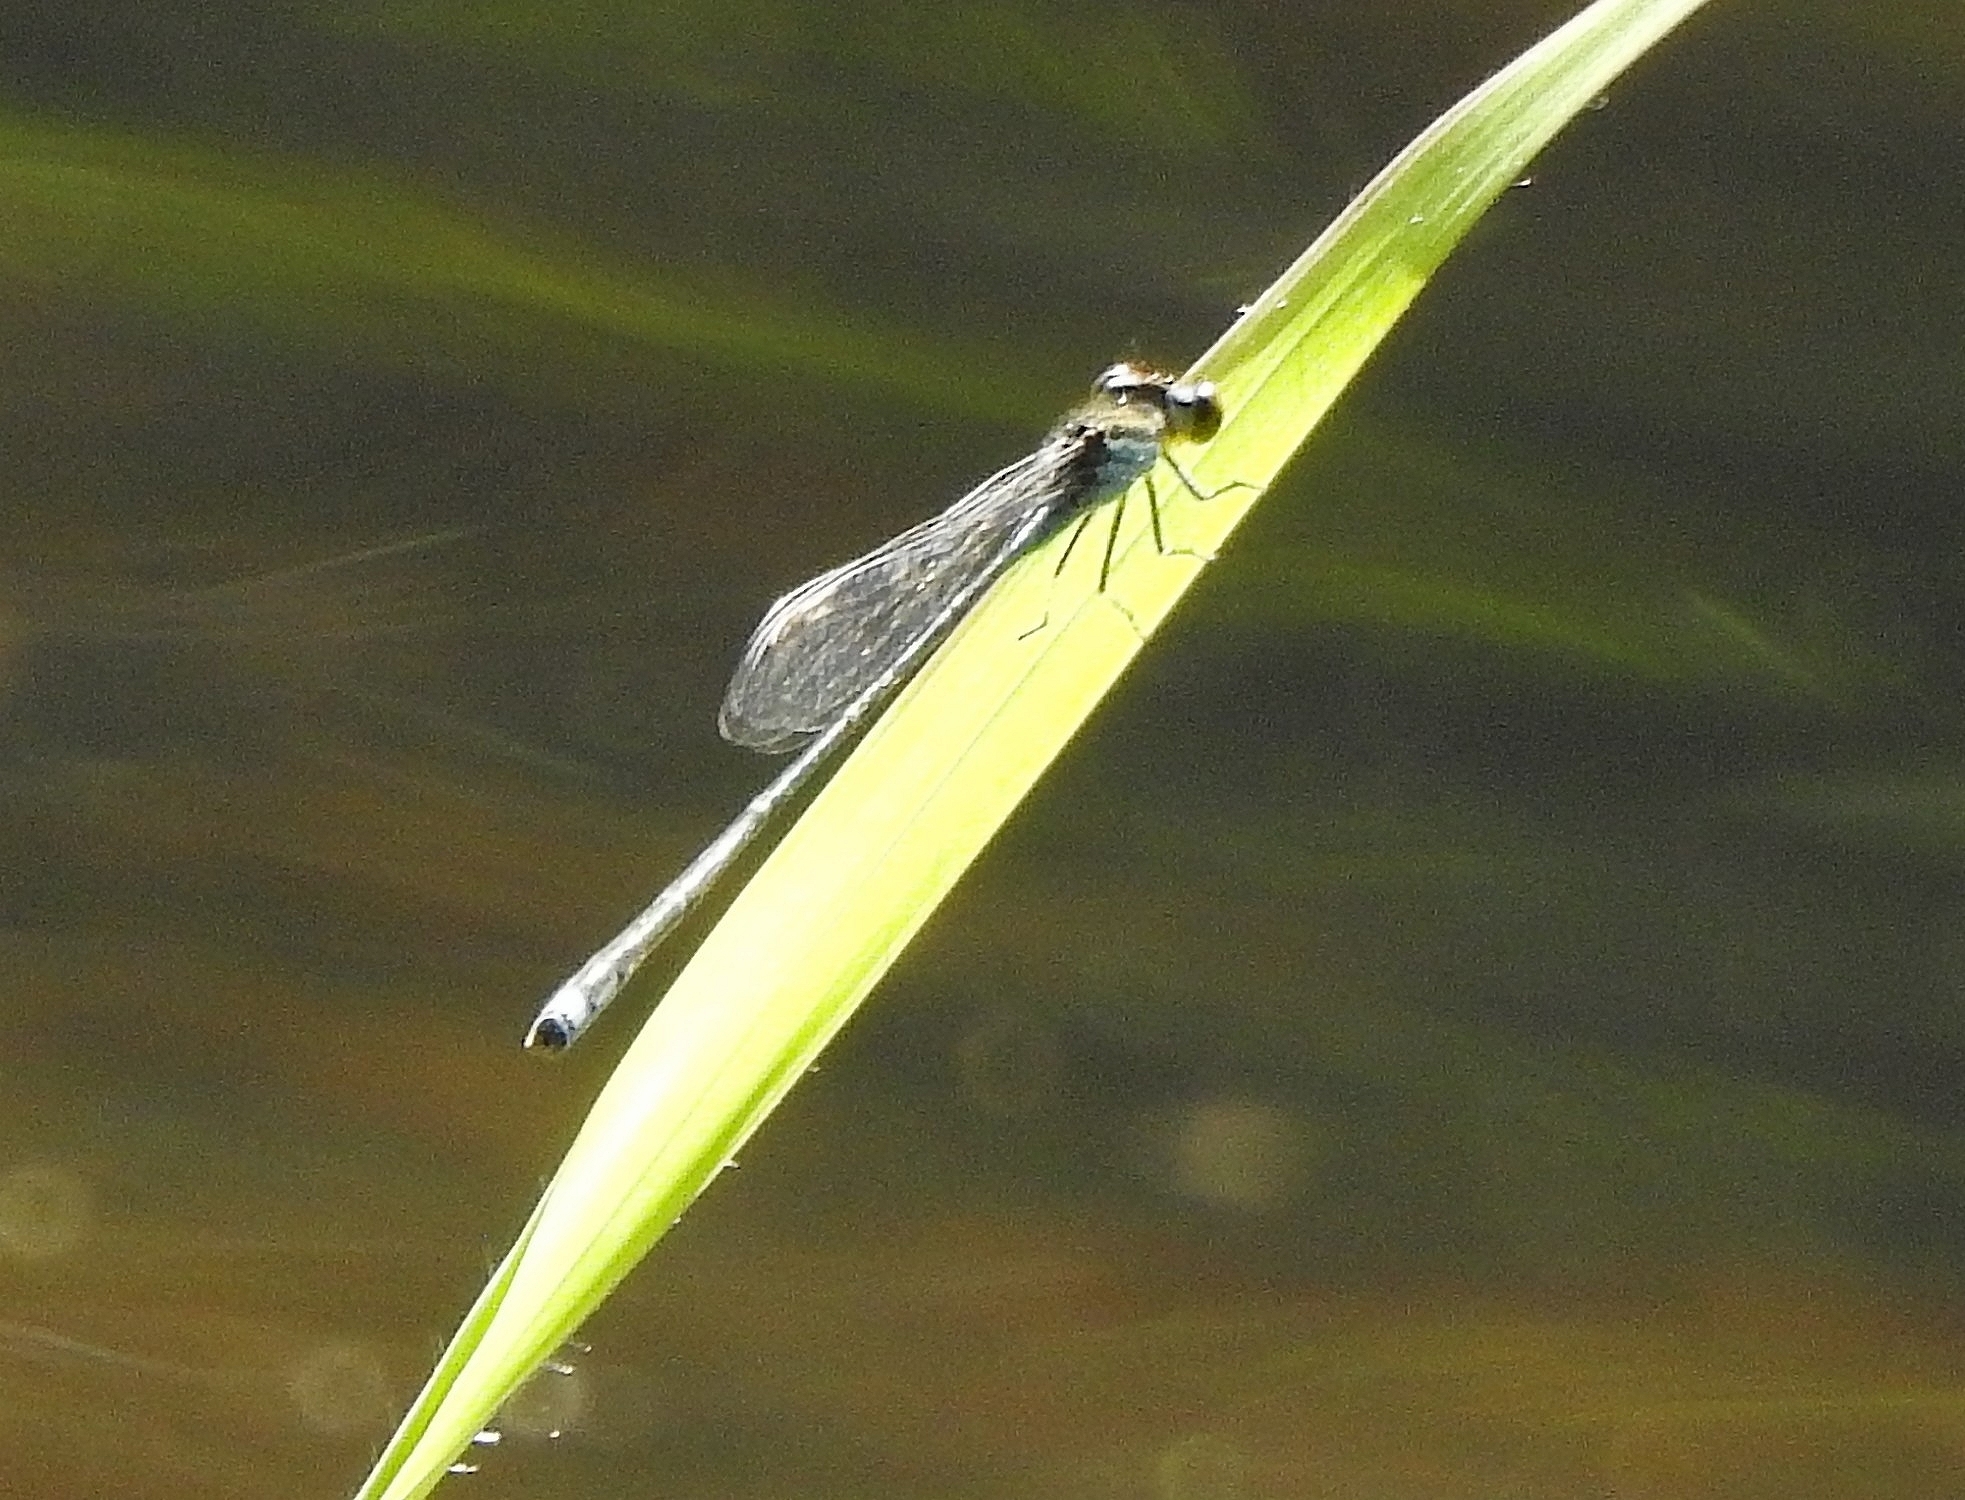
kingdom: Animalia
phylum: Arthropoda
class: Insecta
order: Odonata
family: Coenagrionidae
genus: Pseudagrion
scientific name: Pseudagrion microcephalum
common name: Blue riverdamsel
